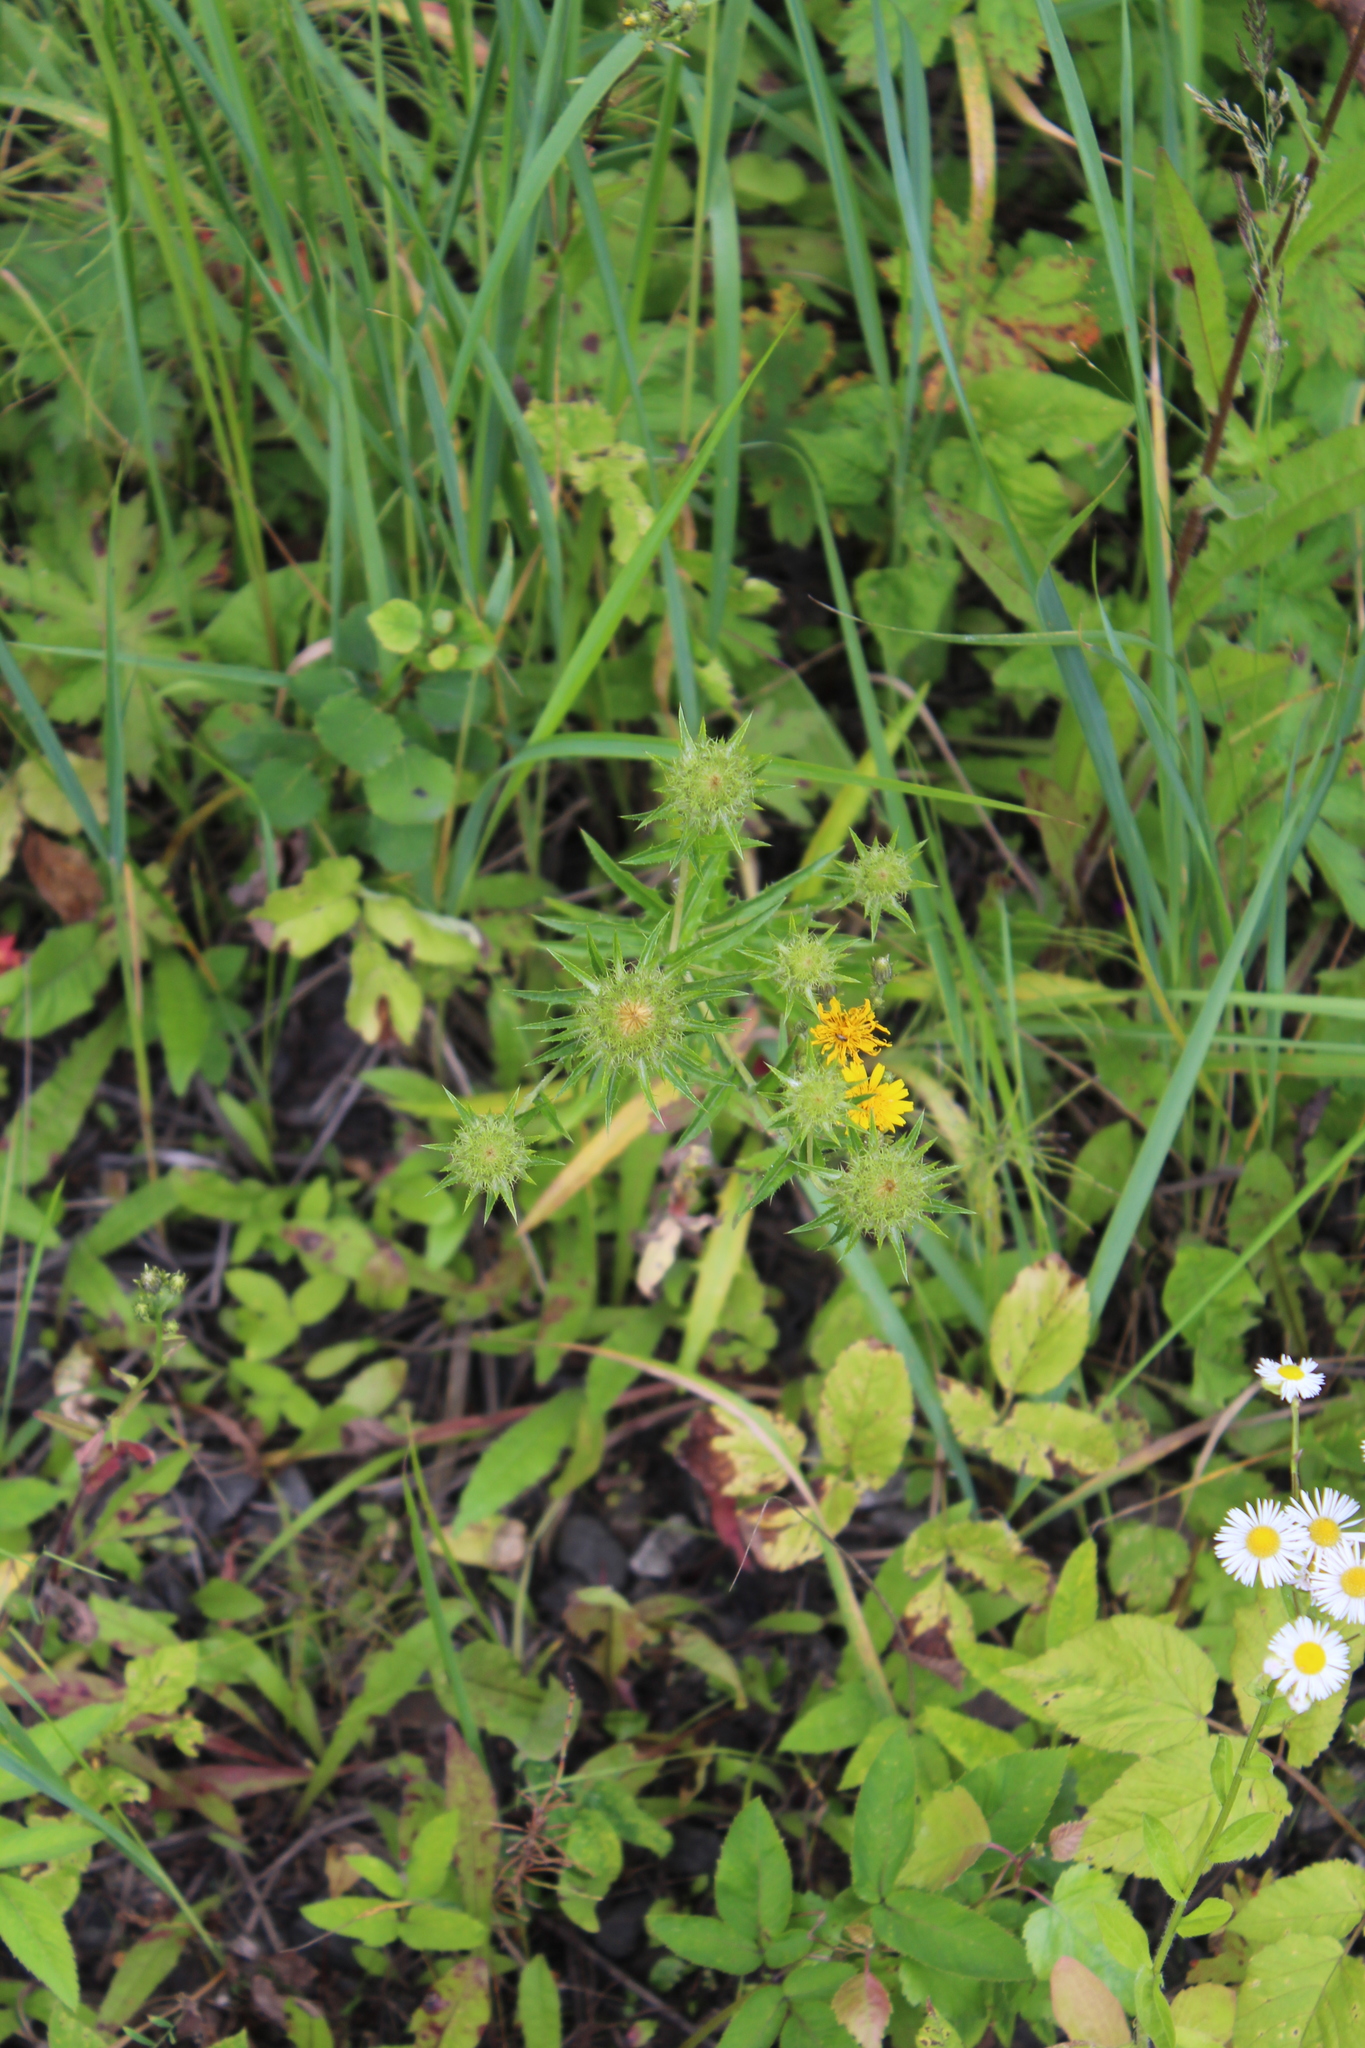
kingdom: Plantae
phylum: Tracheophyta
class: Magnoliopsida
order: Asterales
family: Asteraceae
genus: Carlina
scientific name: Carlina biebersteinii
